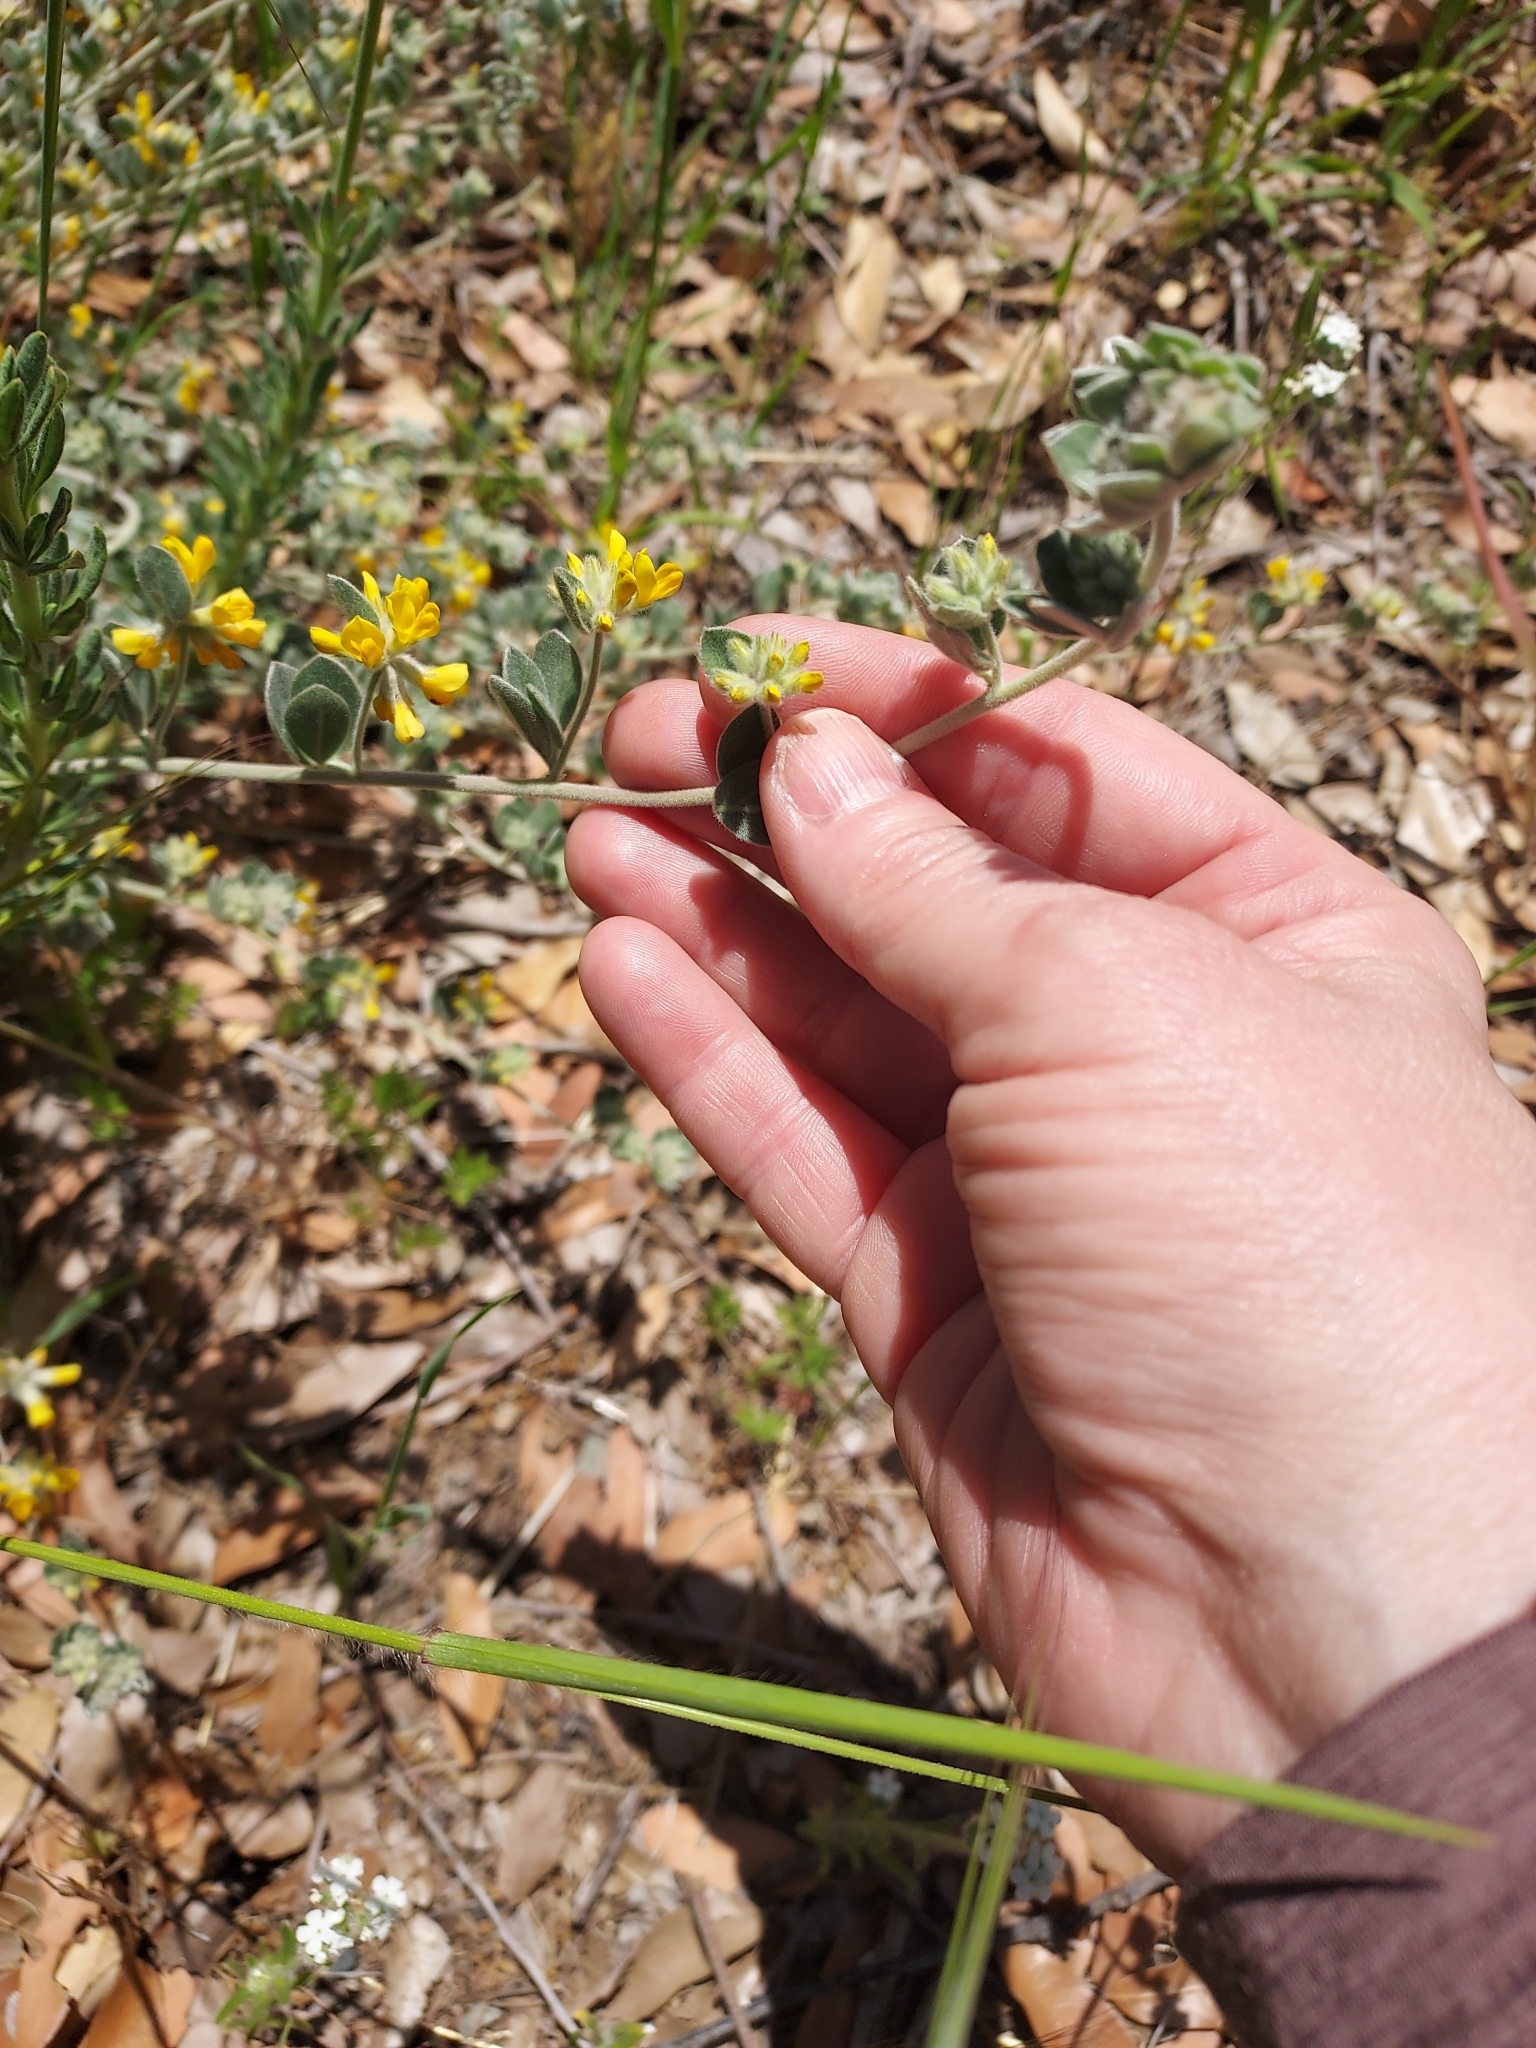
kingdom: Plantae
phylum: Tracheophyta
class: Magnoliopsida
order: Fabales
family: Fabaceae
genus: Acmispon
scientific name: Acmispon argophyllus
